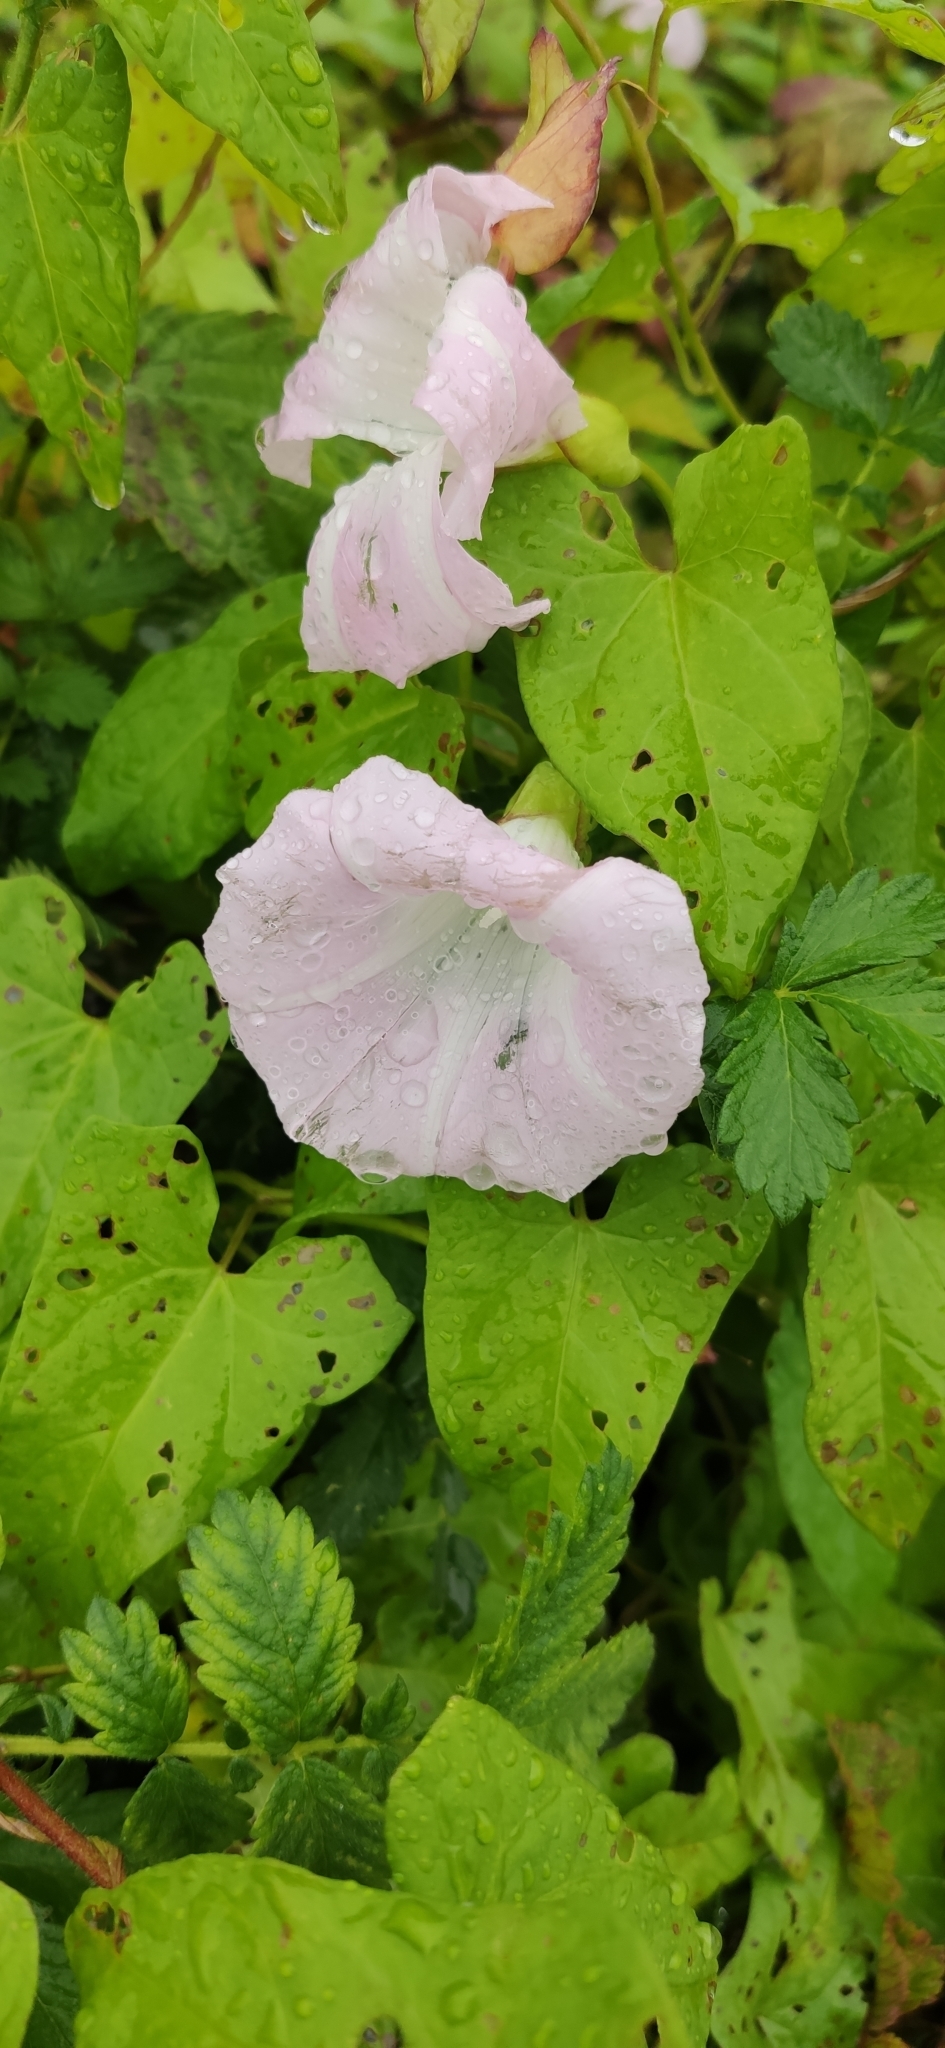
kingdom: Plantae
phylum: Tracheophyta
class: Magnoliopsida
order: Solanales
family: Convolvulaceae
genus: Calystegia
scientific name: Calystegia sepium
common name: Hedge bindweed
